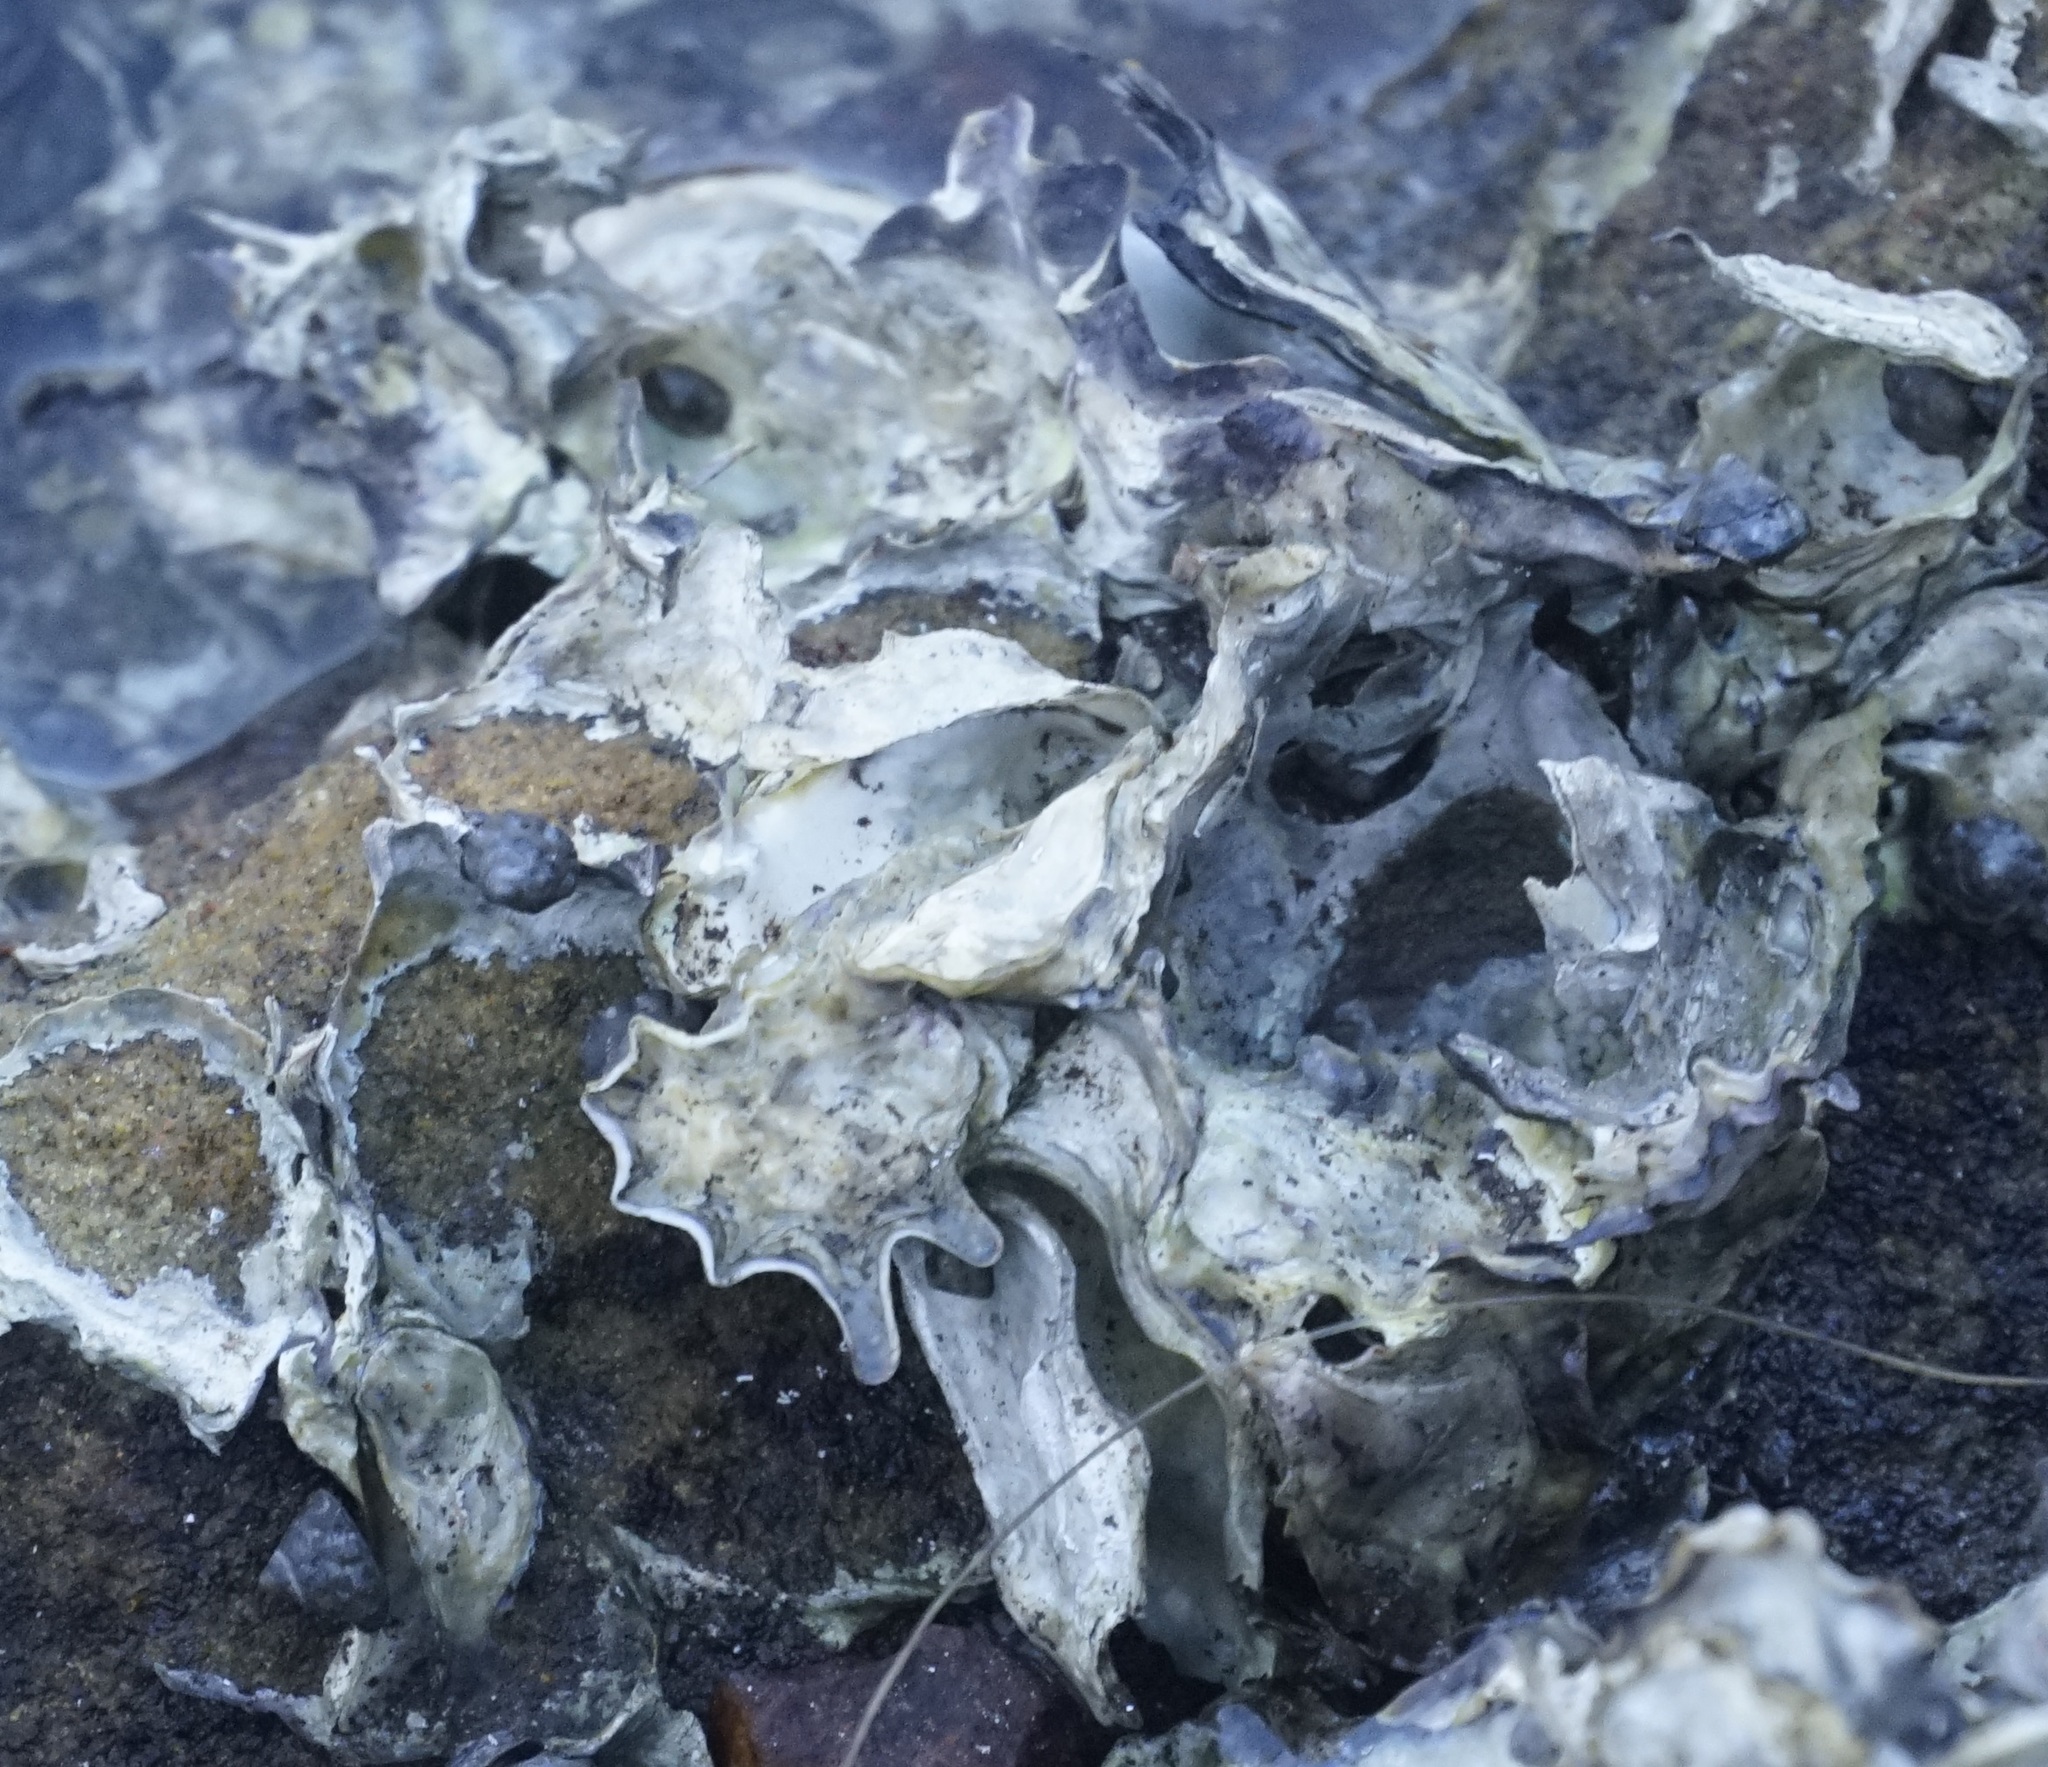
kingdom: Animalia
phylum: Mollusca
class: Bivalvia
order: Ostreida
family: Ostreidae
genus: Saccostrea
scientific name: Saccostrea glomerata
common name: Sydney cupped oyster
